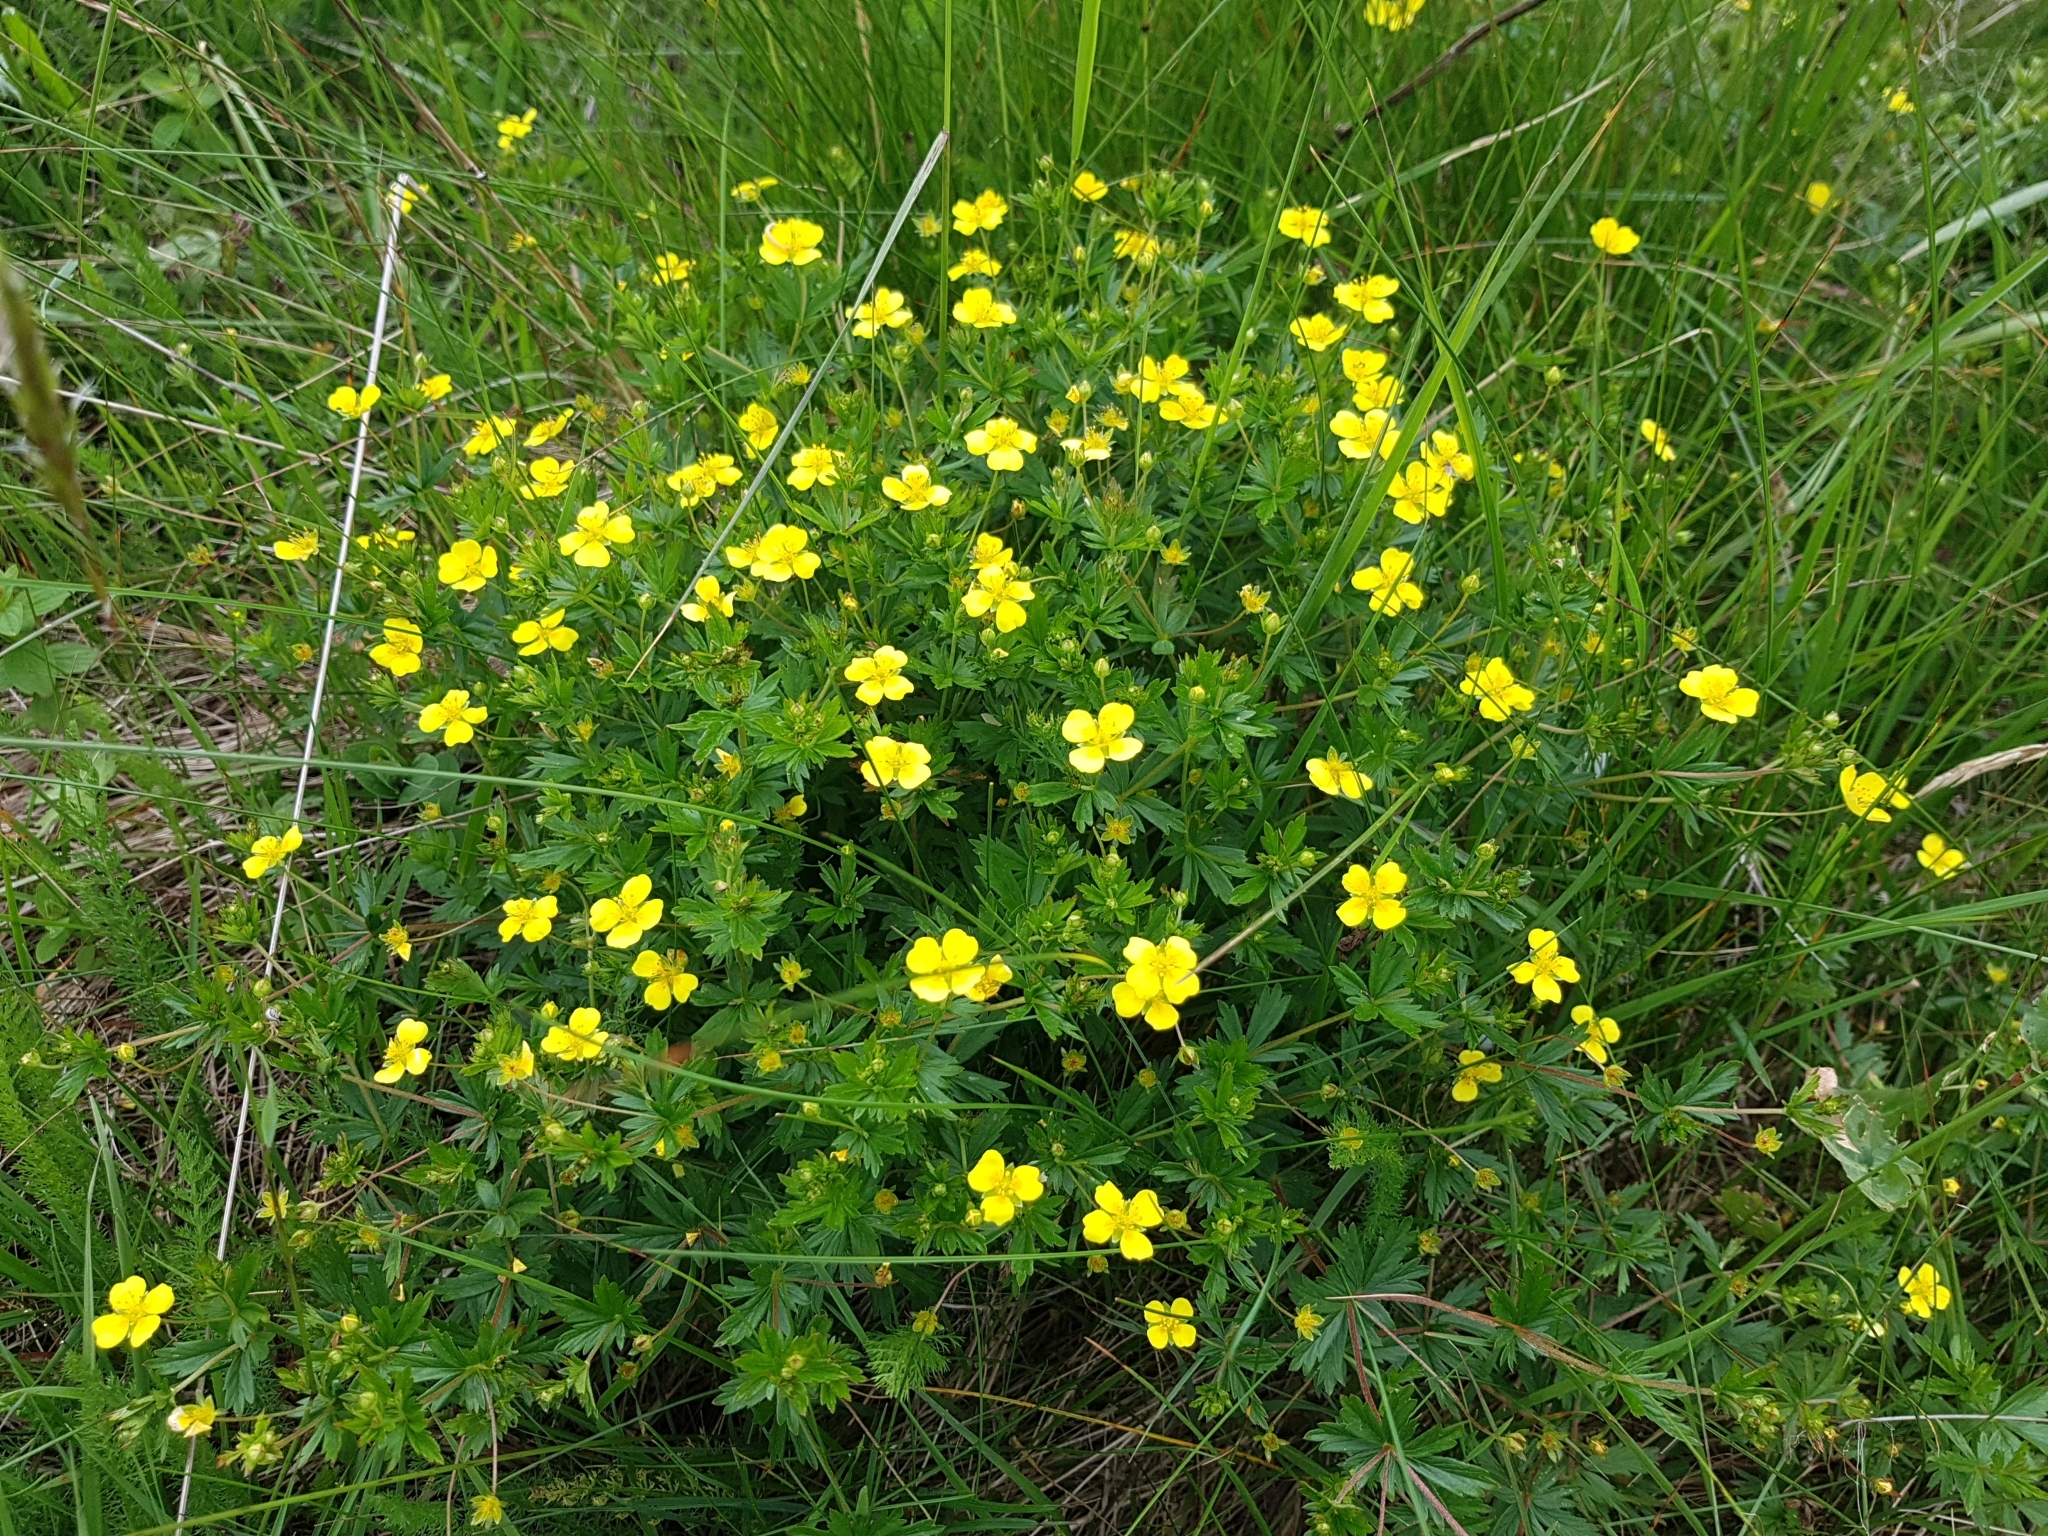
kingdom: Plantae
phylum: Tracheophyta
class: Magnoliopsida
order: Rosales
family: Rosaceae
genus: Potentilla
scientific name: Potentilla erecta
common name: Tormentil
